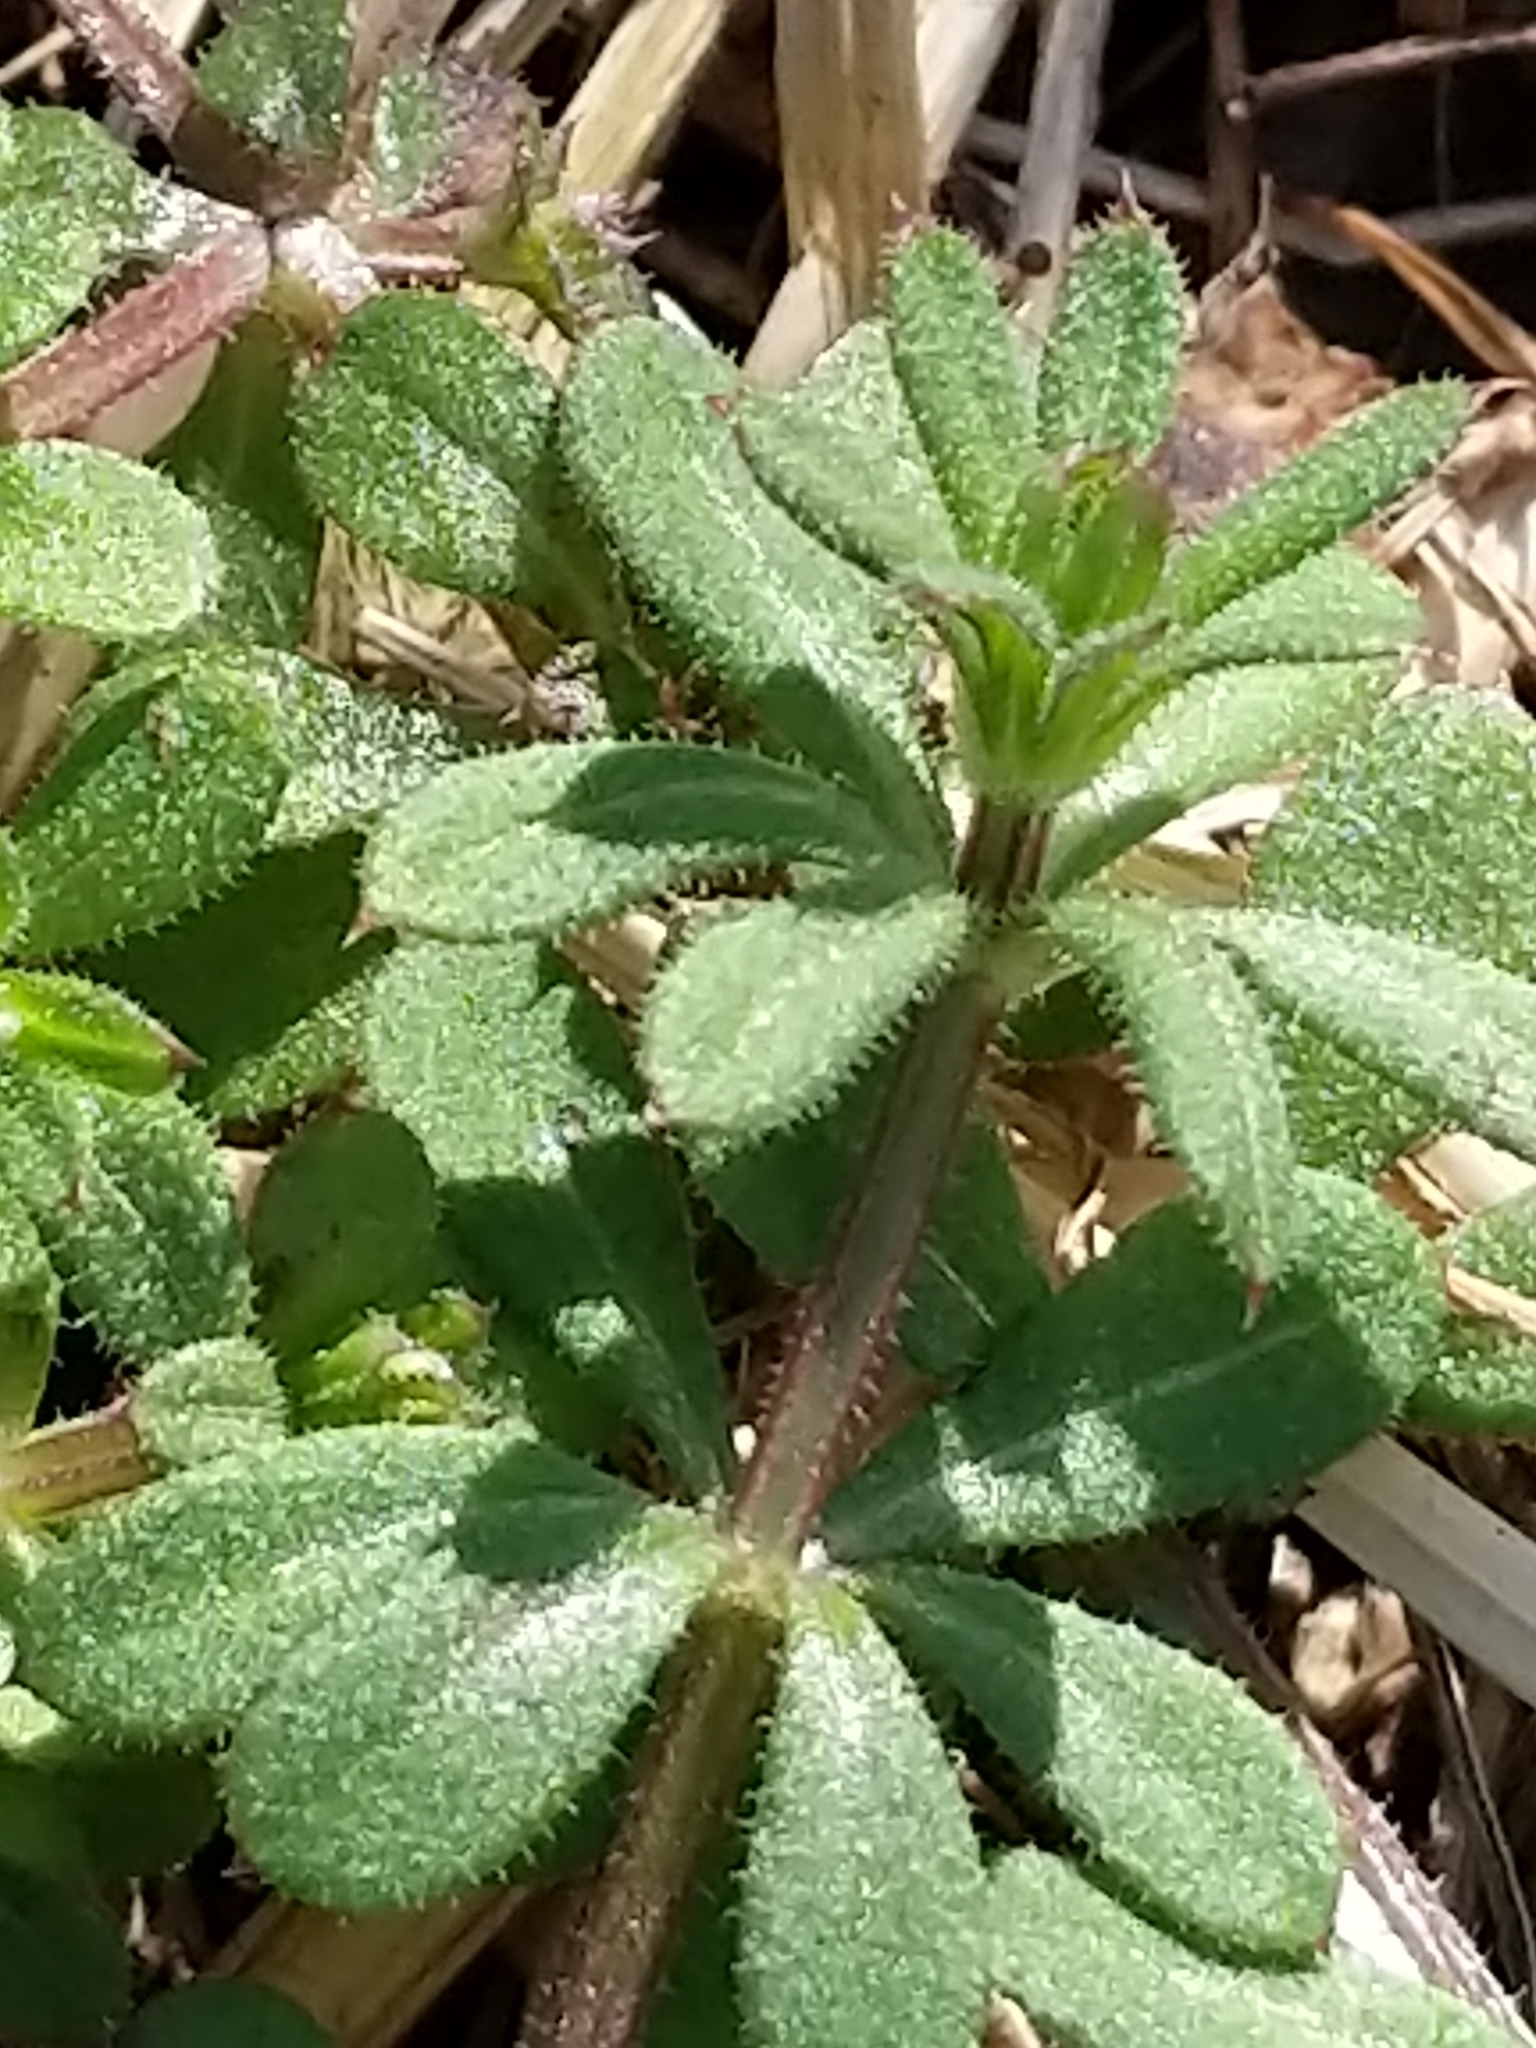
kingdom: Plantae
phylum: Tracheophyta
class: Magnoliopsida
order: Gentianales
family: Rubiaceae
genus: Galium
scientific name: Galium aparine
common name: Cleavers
